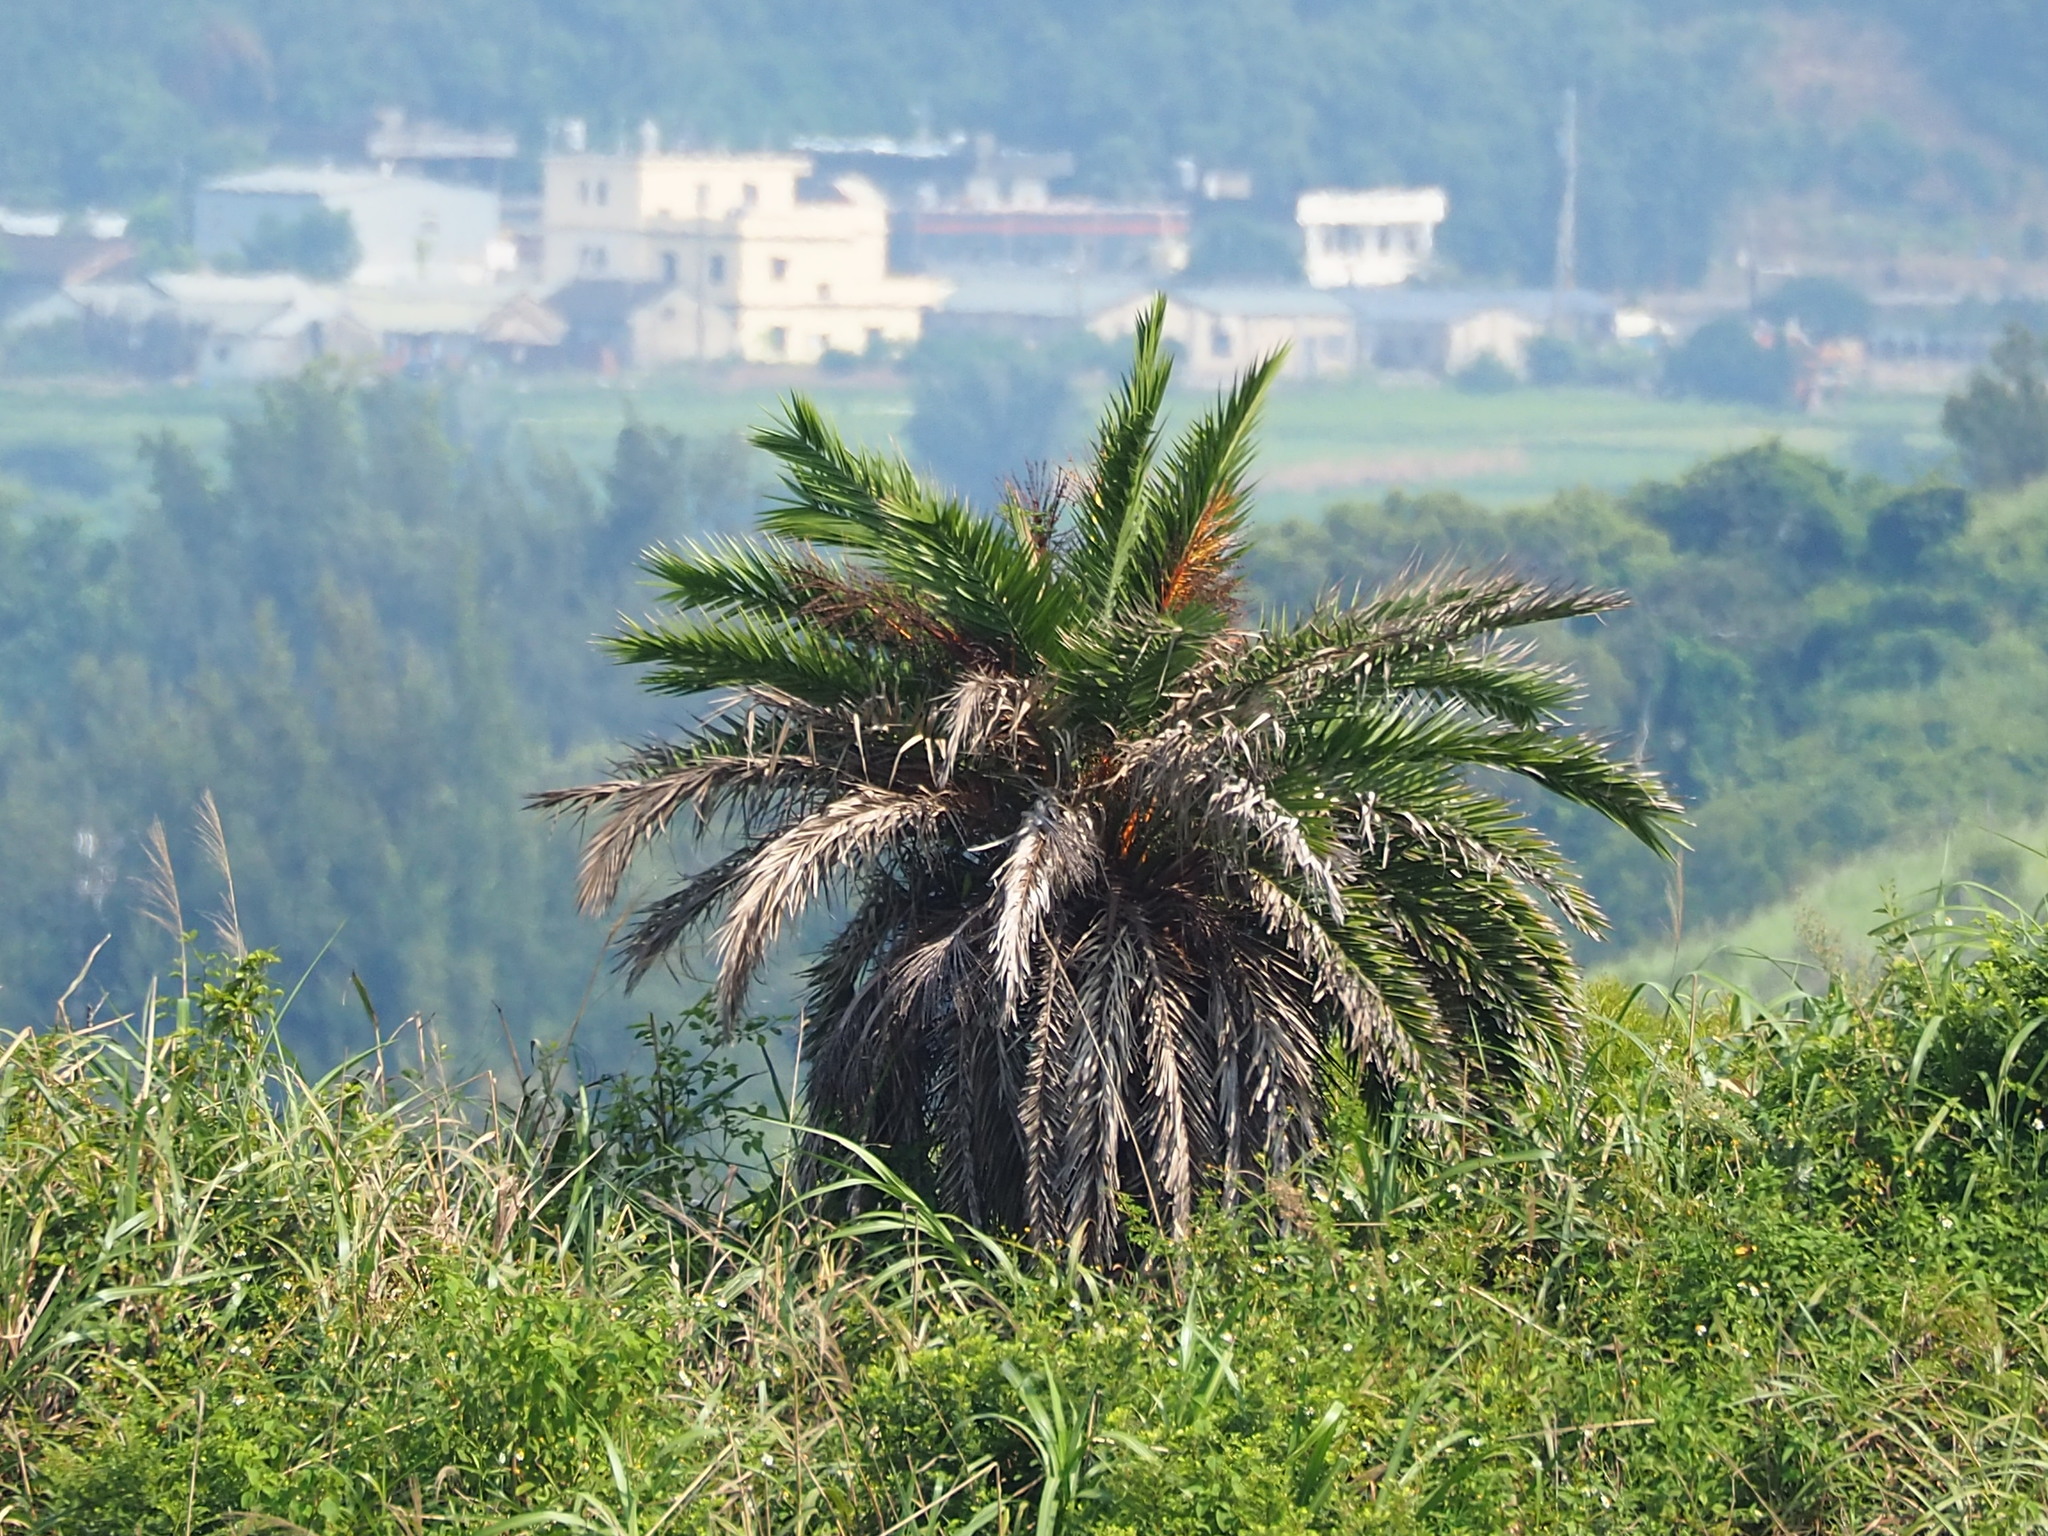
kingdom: Plantae
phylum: Tracheophyta
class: Liliopsida
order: Arecales
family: Arecaceae
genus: Phoenix
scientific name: Phoenix loureiroi
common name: Loureiro's palm
